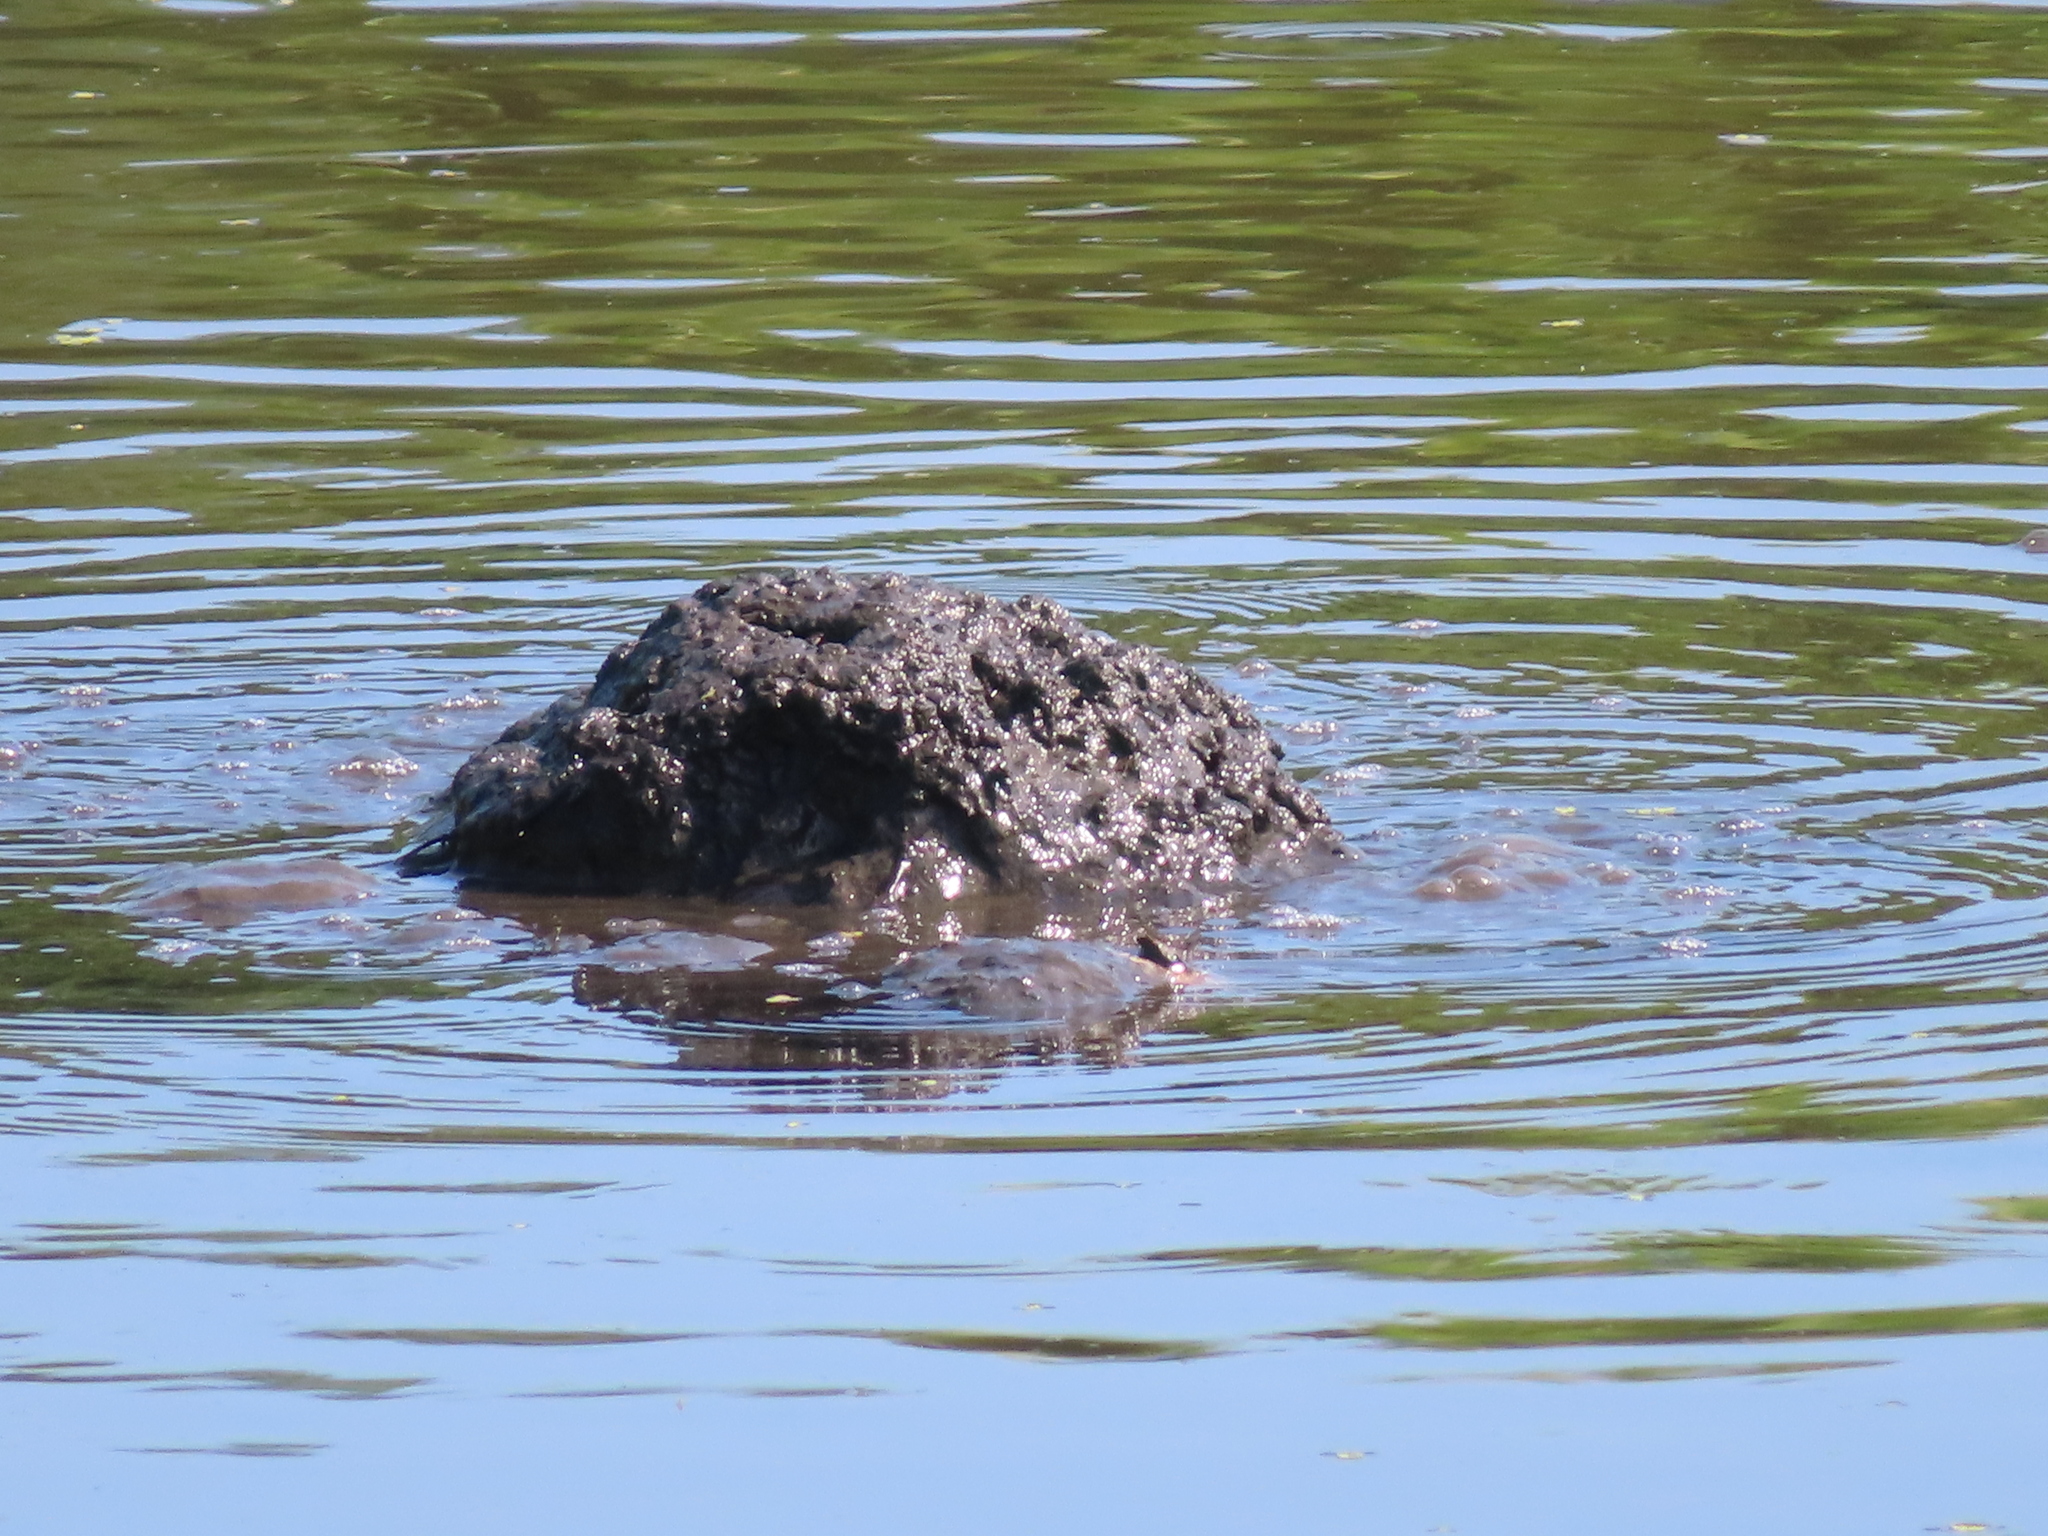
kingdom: Animalia
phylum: Chordata
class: Testudines
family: Chelydridae
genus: Chelydra
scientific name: Chelydra serpentina
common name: Common snapping turtle
